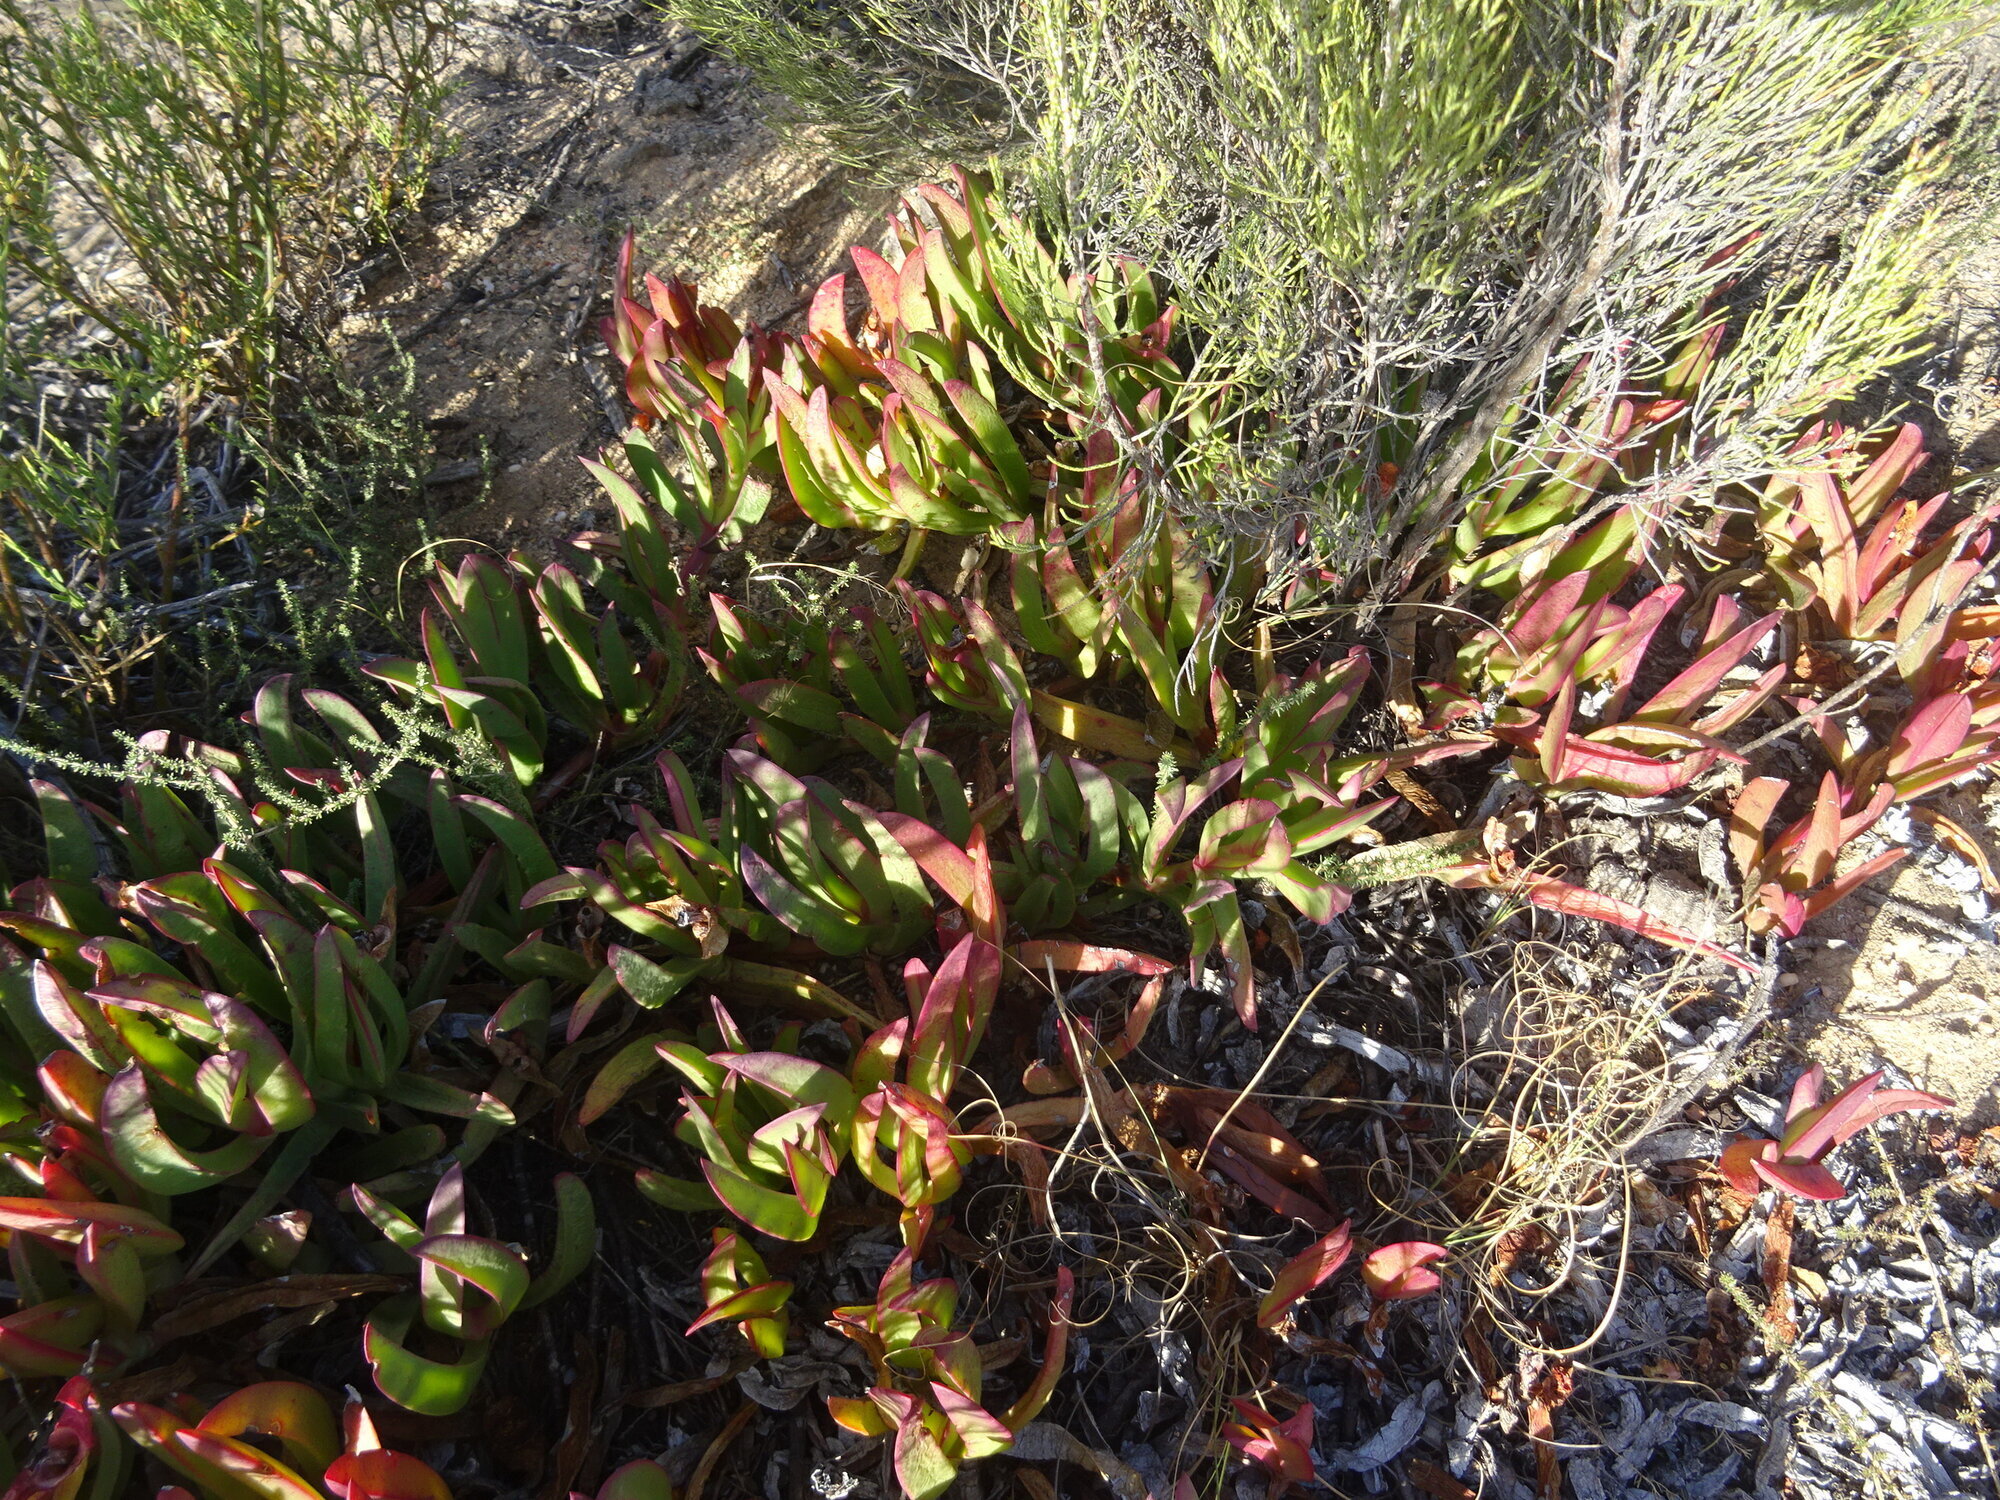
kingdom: Plantae
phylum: Tracheophyta
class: Magnoliopsida
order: Caryophyllales
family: Aizoaceae
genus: Carpobrotus
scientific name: Carpobrotus edulis
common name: Hottentot-fig
